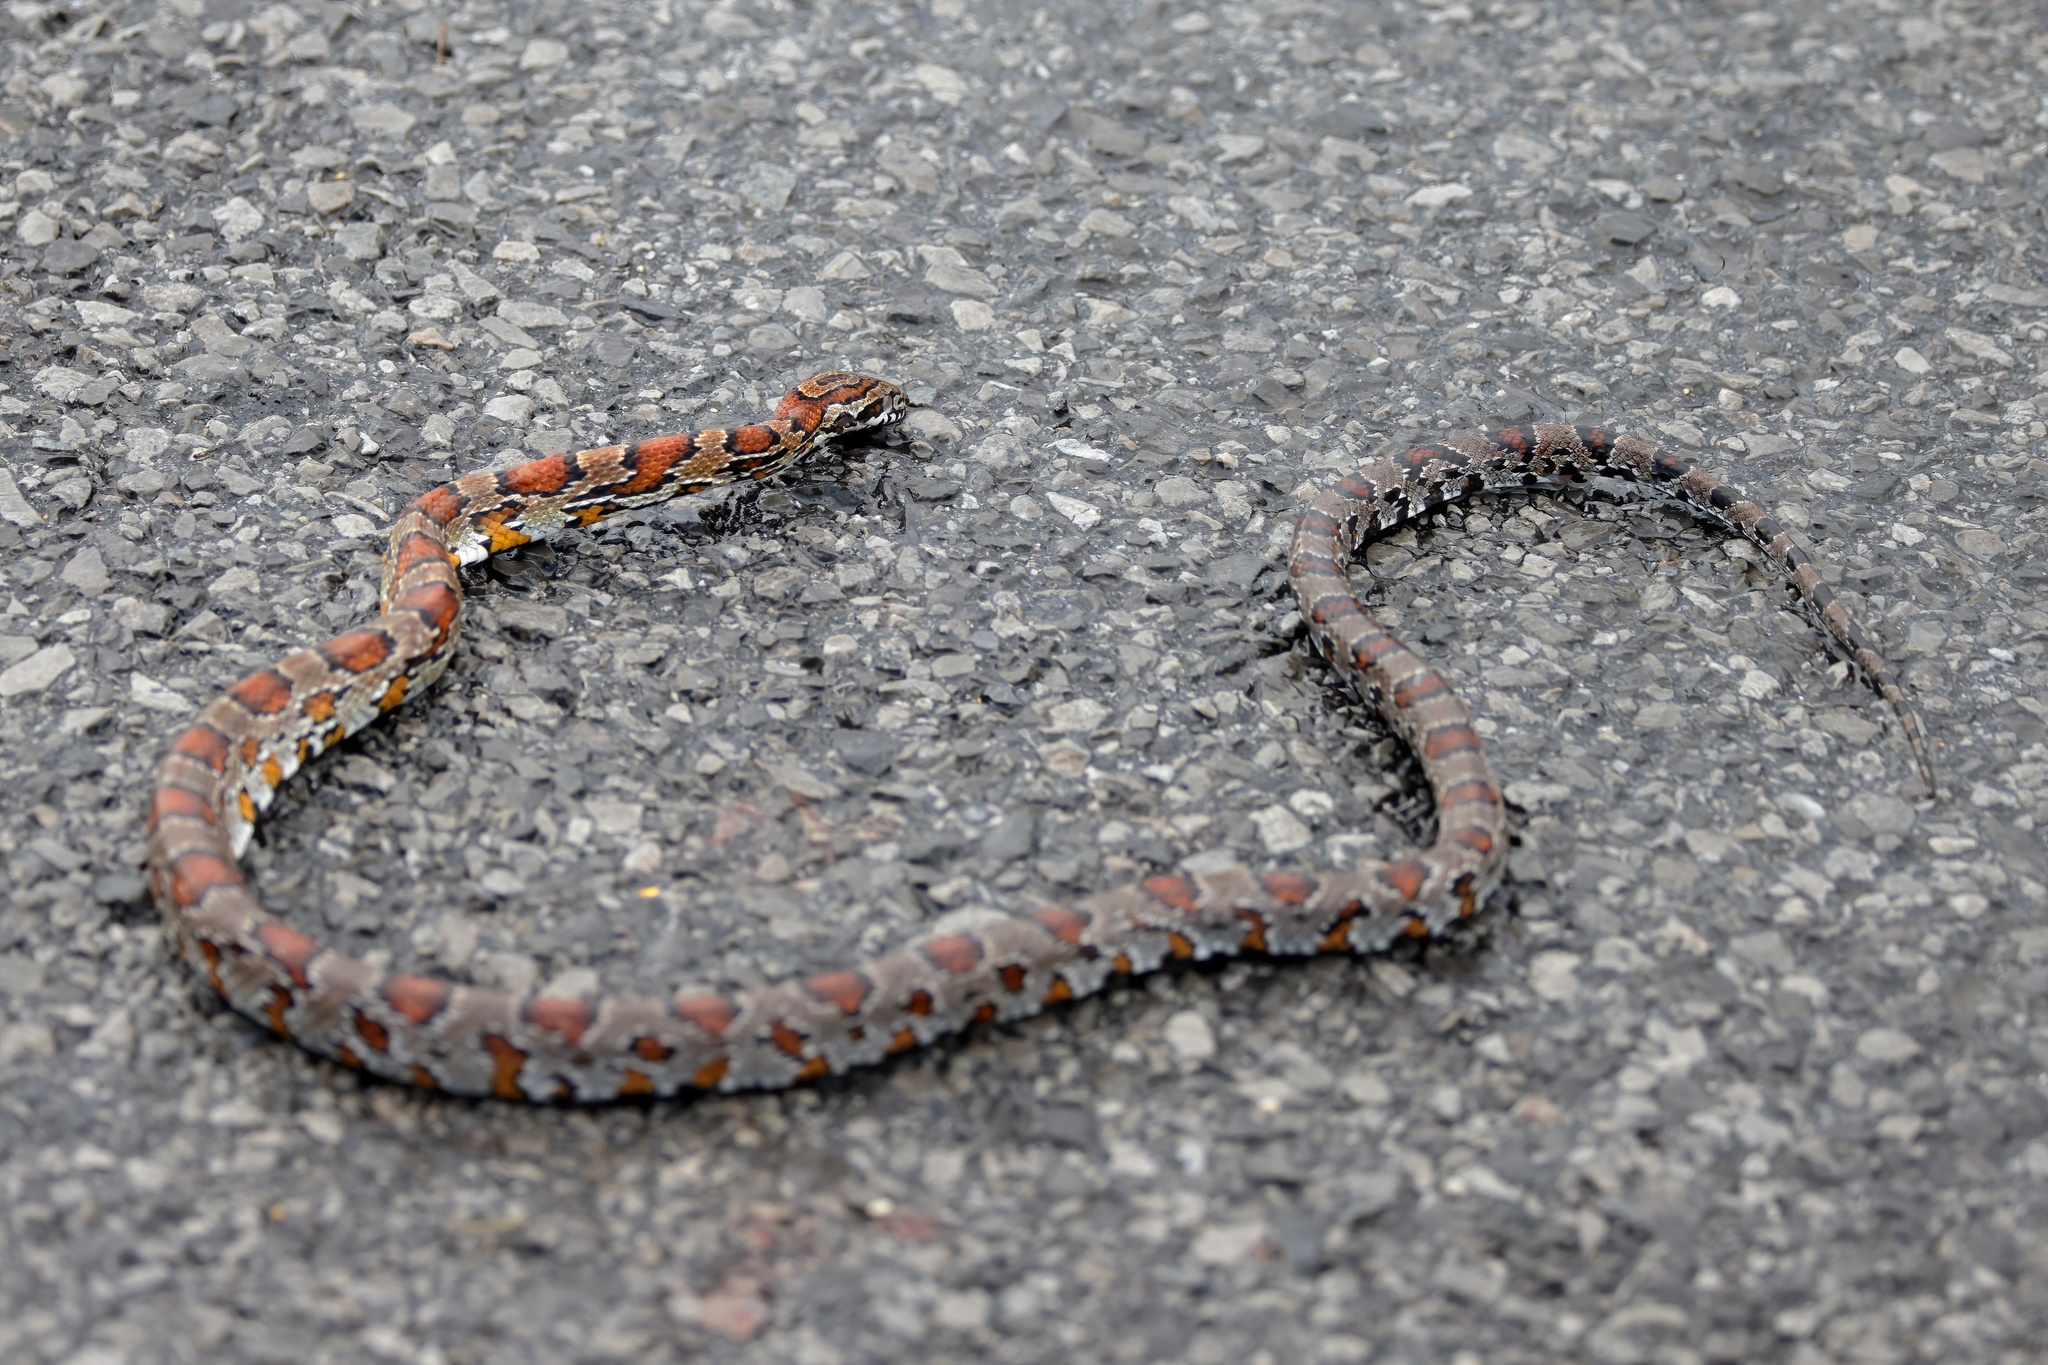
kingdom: Animalia
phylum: Chordata
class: Squamata
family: Colubridae
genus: Pantherophis
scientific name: Pantherophis guttatus
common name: Red cornsnake
